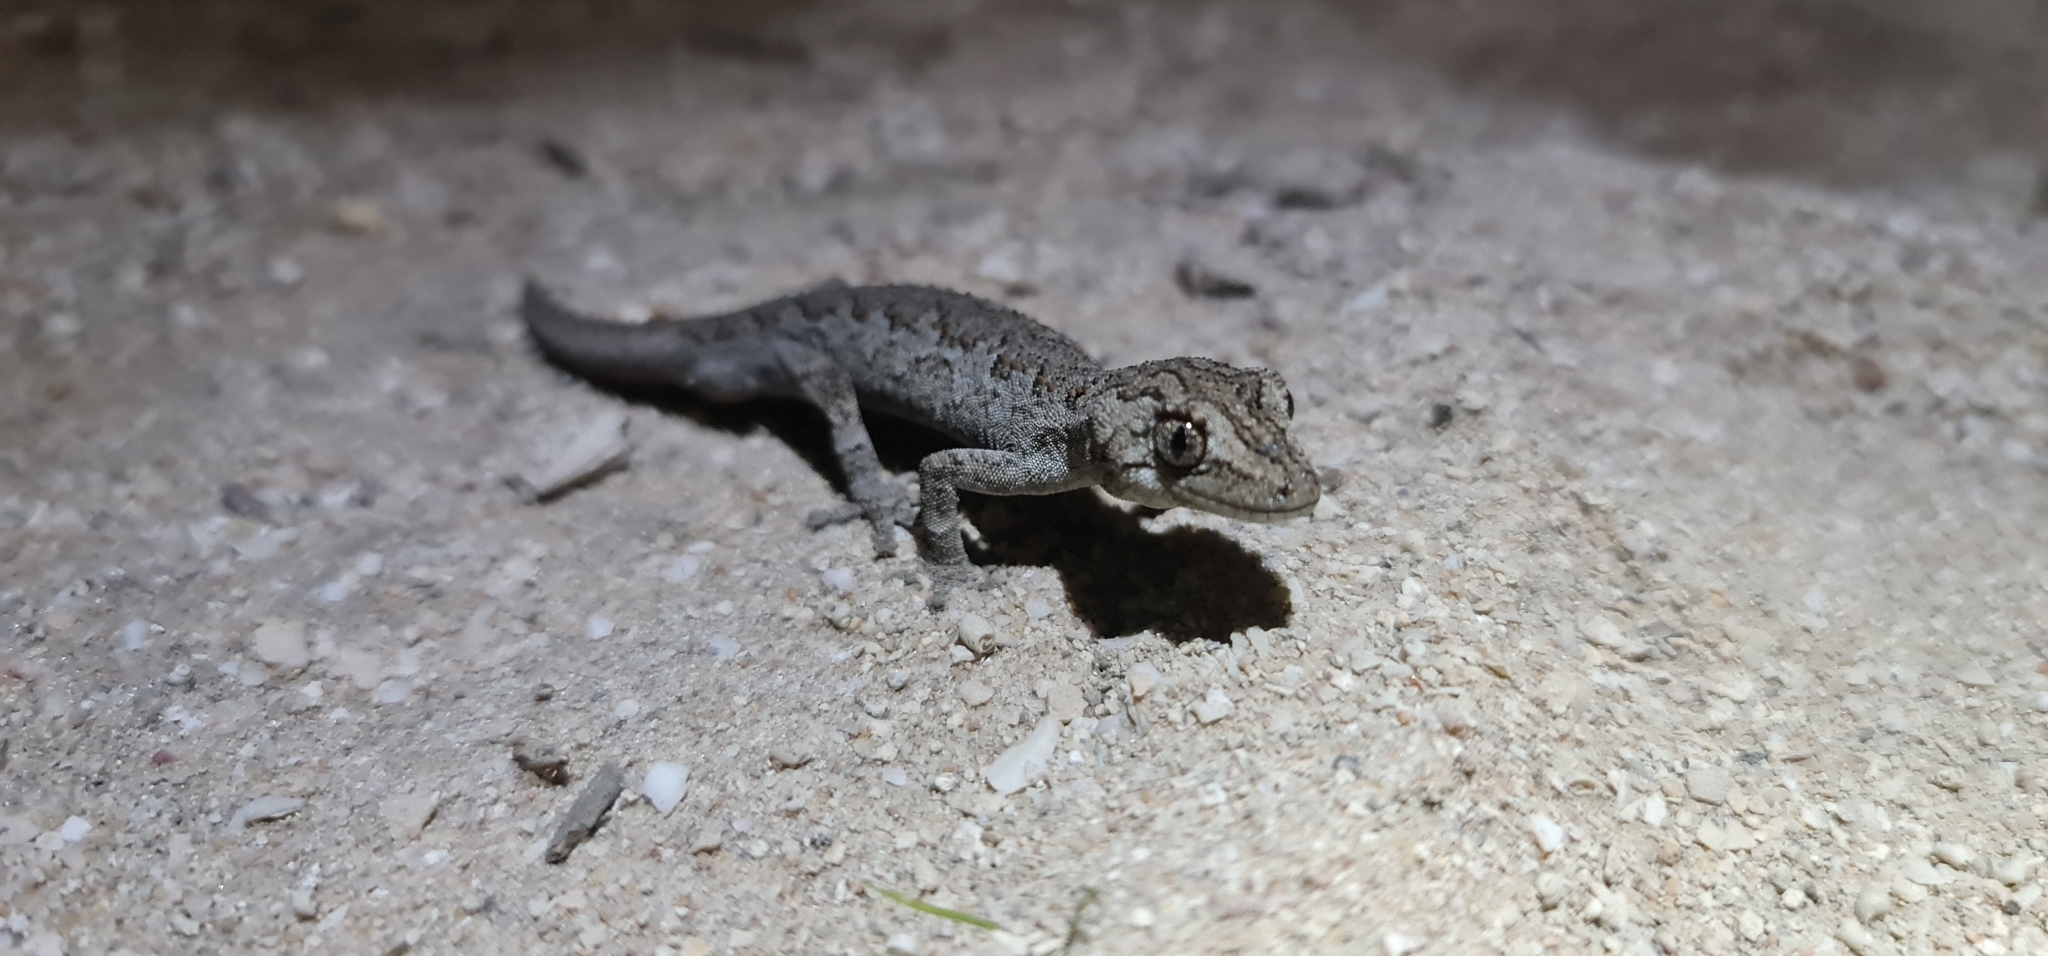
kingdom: Animalia
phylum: Chordata
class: Squamata
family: Diplodactylidae
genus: Strophurus
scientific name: Strophurus intermedius
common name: Eastern spiny-tailed gecko
